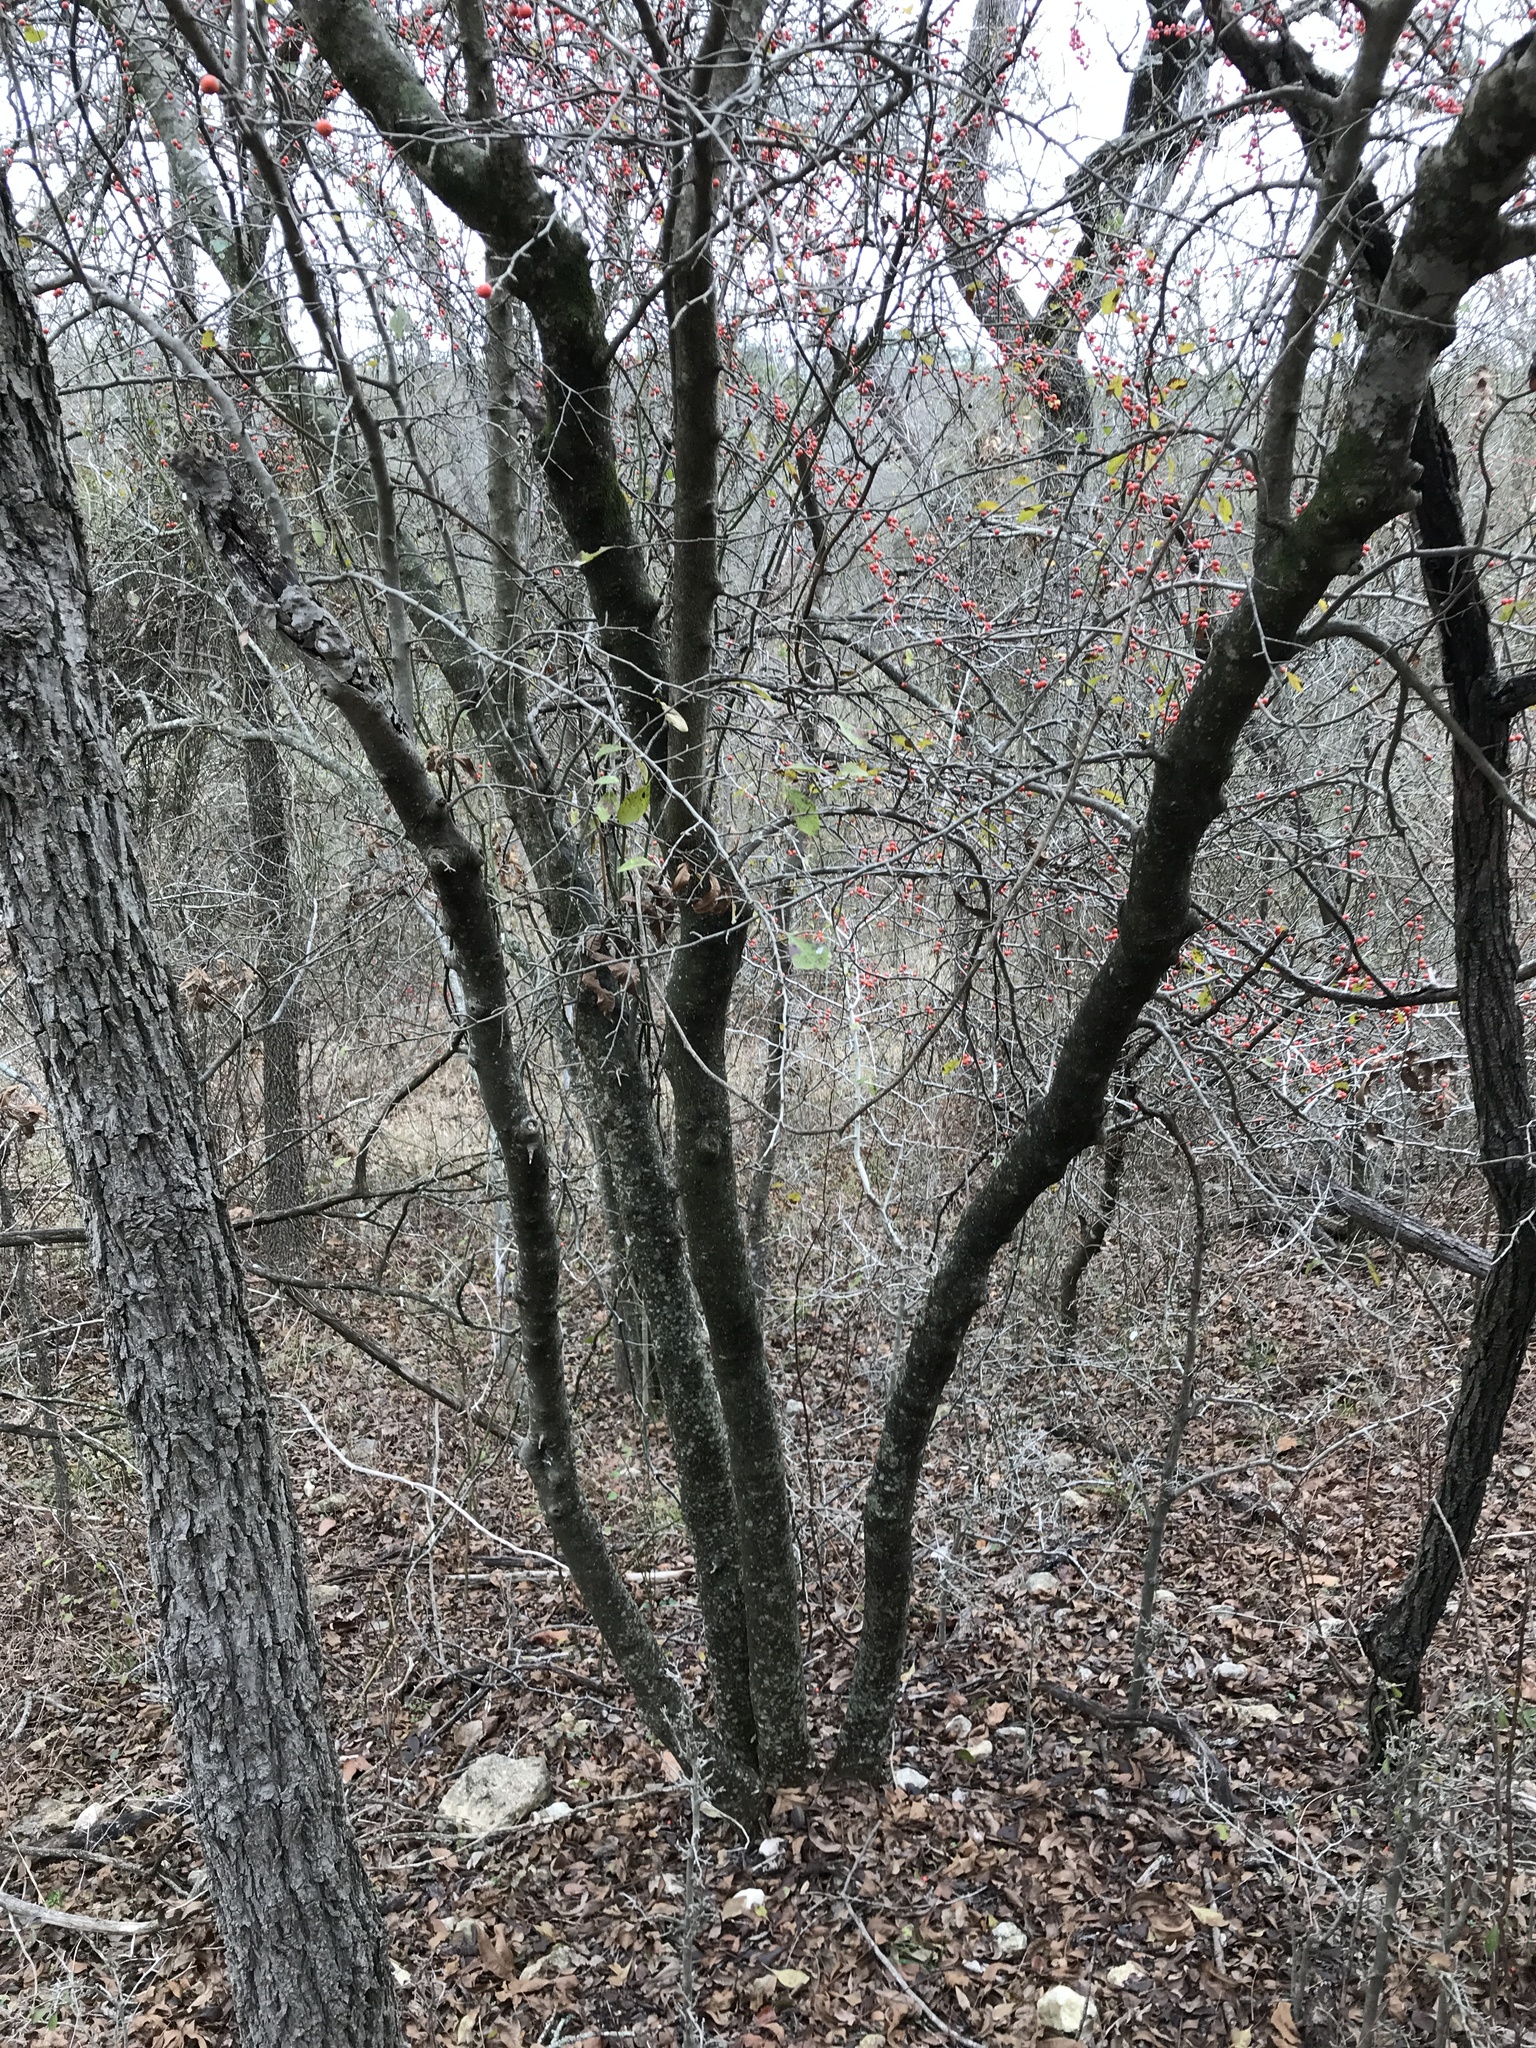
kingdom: Plantae
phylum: Tracheophyta
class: Magnoliopsida
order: Aquifoliales
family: Aquifoliaceae
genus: Ilex
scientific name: Ilex decidua
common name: Possum-haw
